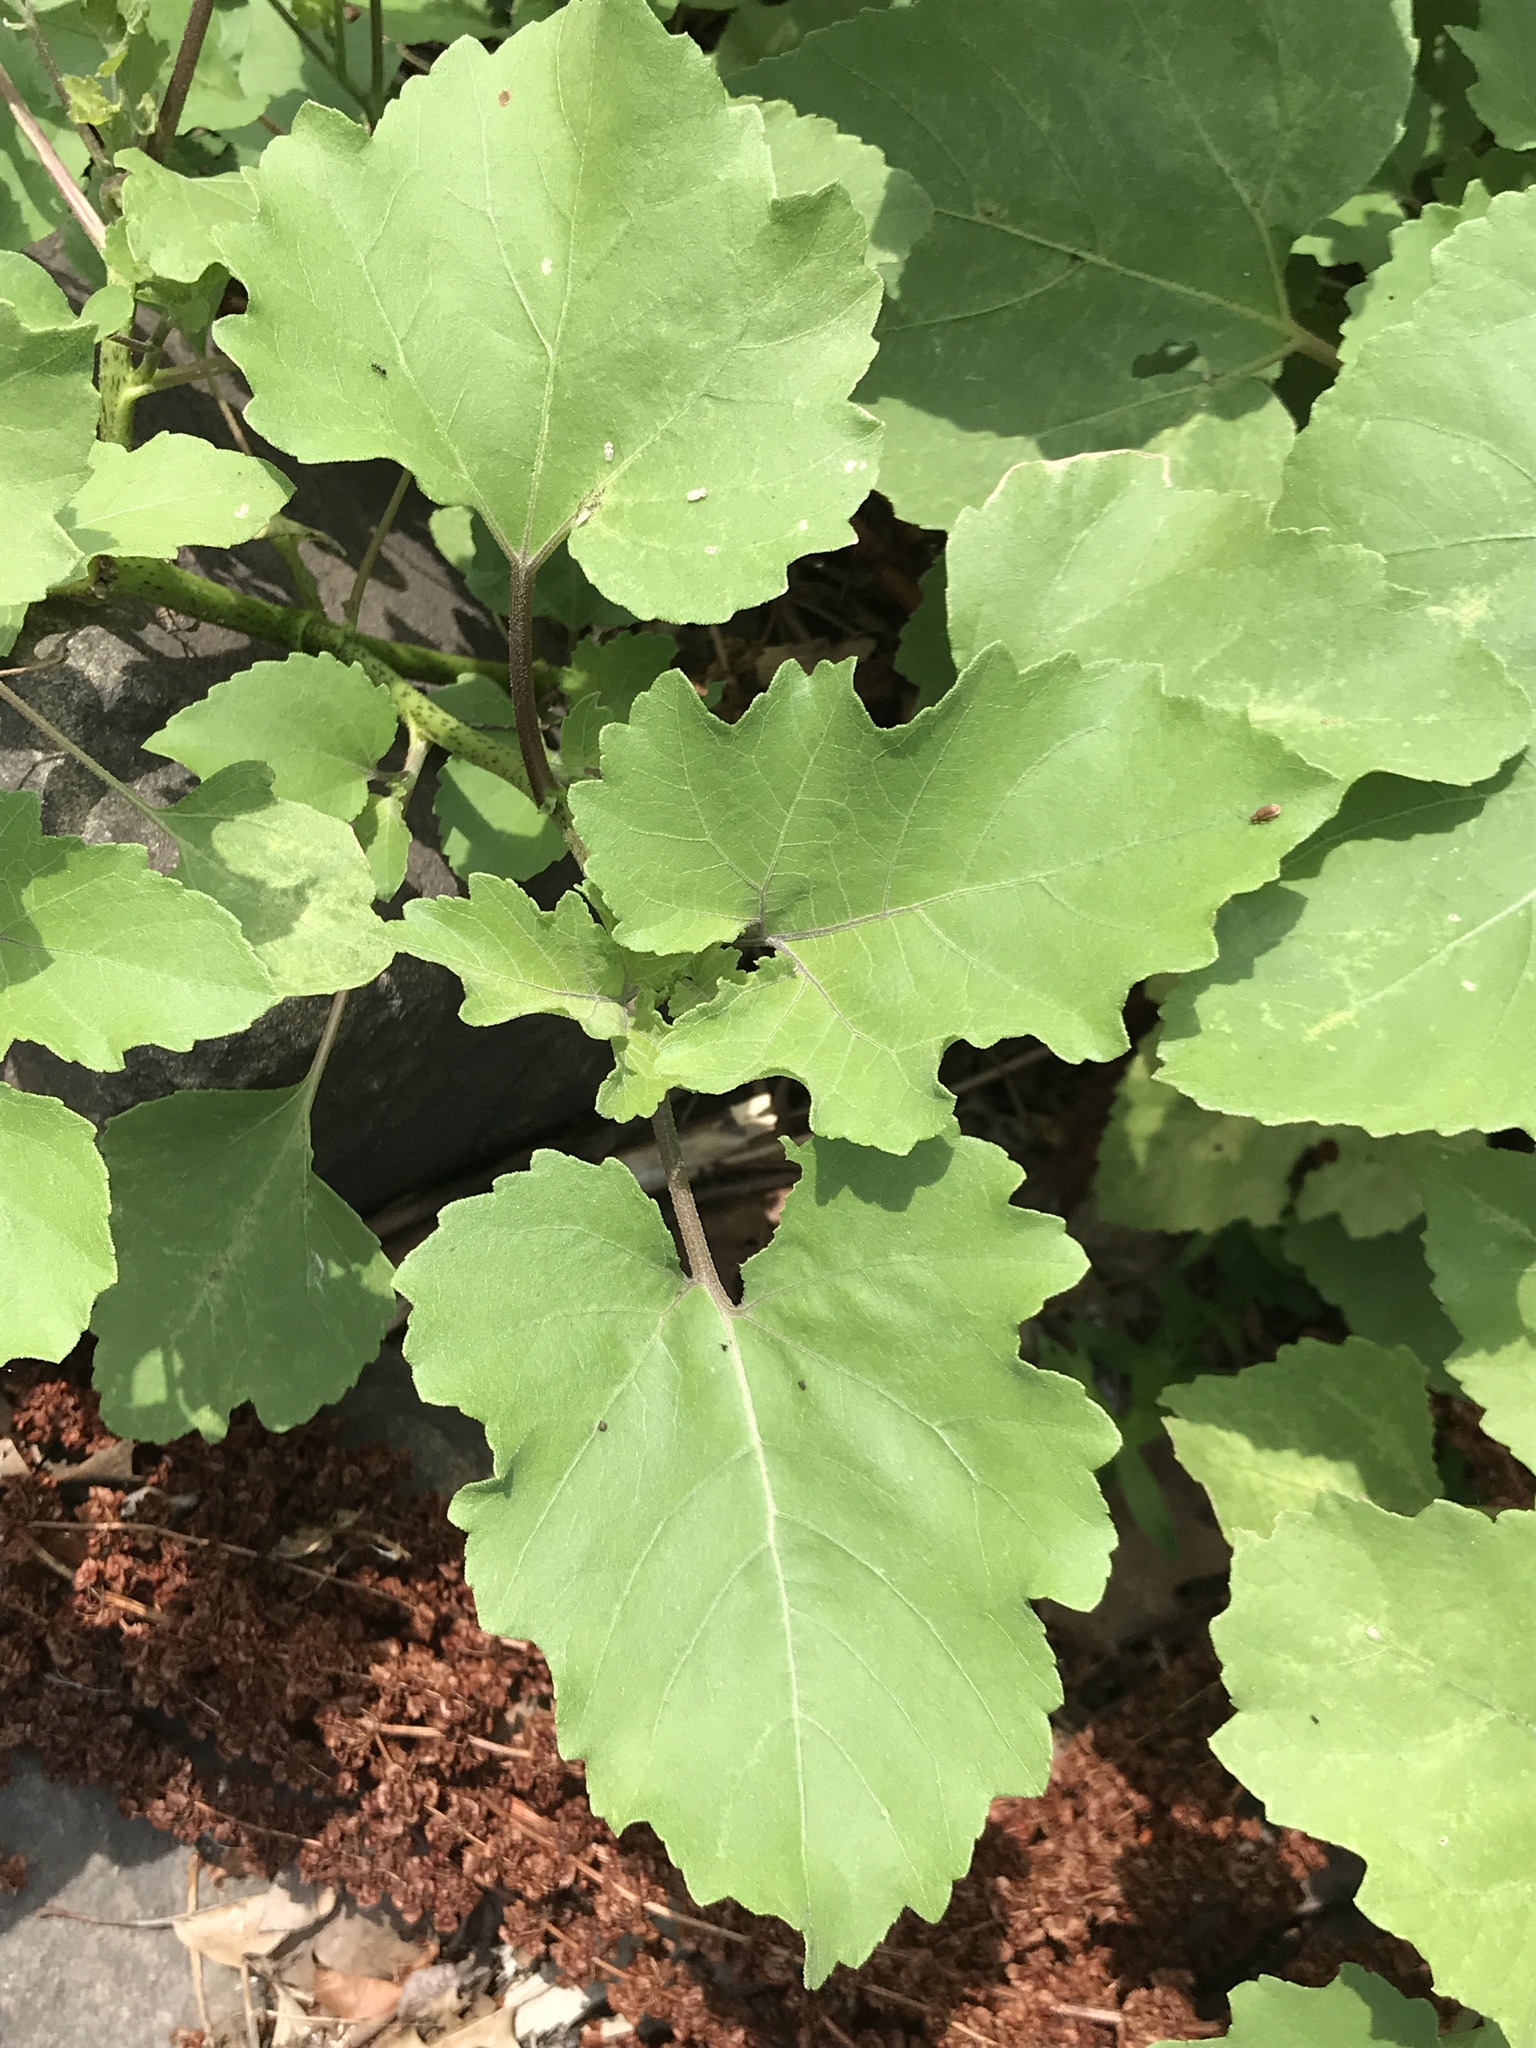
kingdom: Plantae
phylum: Tracheophyta
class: Magnoliopsida
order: Asterales
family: Asteraceae
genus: Xanthium
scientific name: Xanthium strumarium
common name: Rough cocklebur
